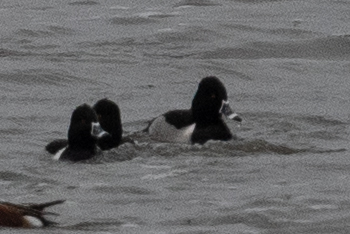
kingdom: Animalia
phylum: Chordata
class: Aves
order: Anseriformes
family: Anatidae
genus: Aythya
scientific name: Aythya collaris
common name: Ring-necked duck
